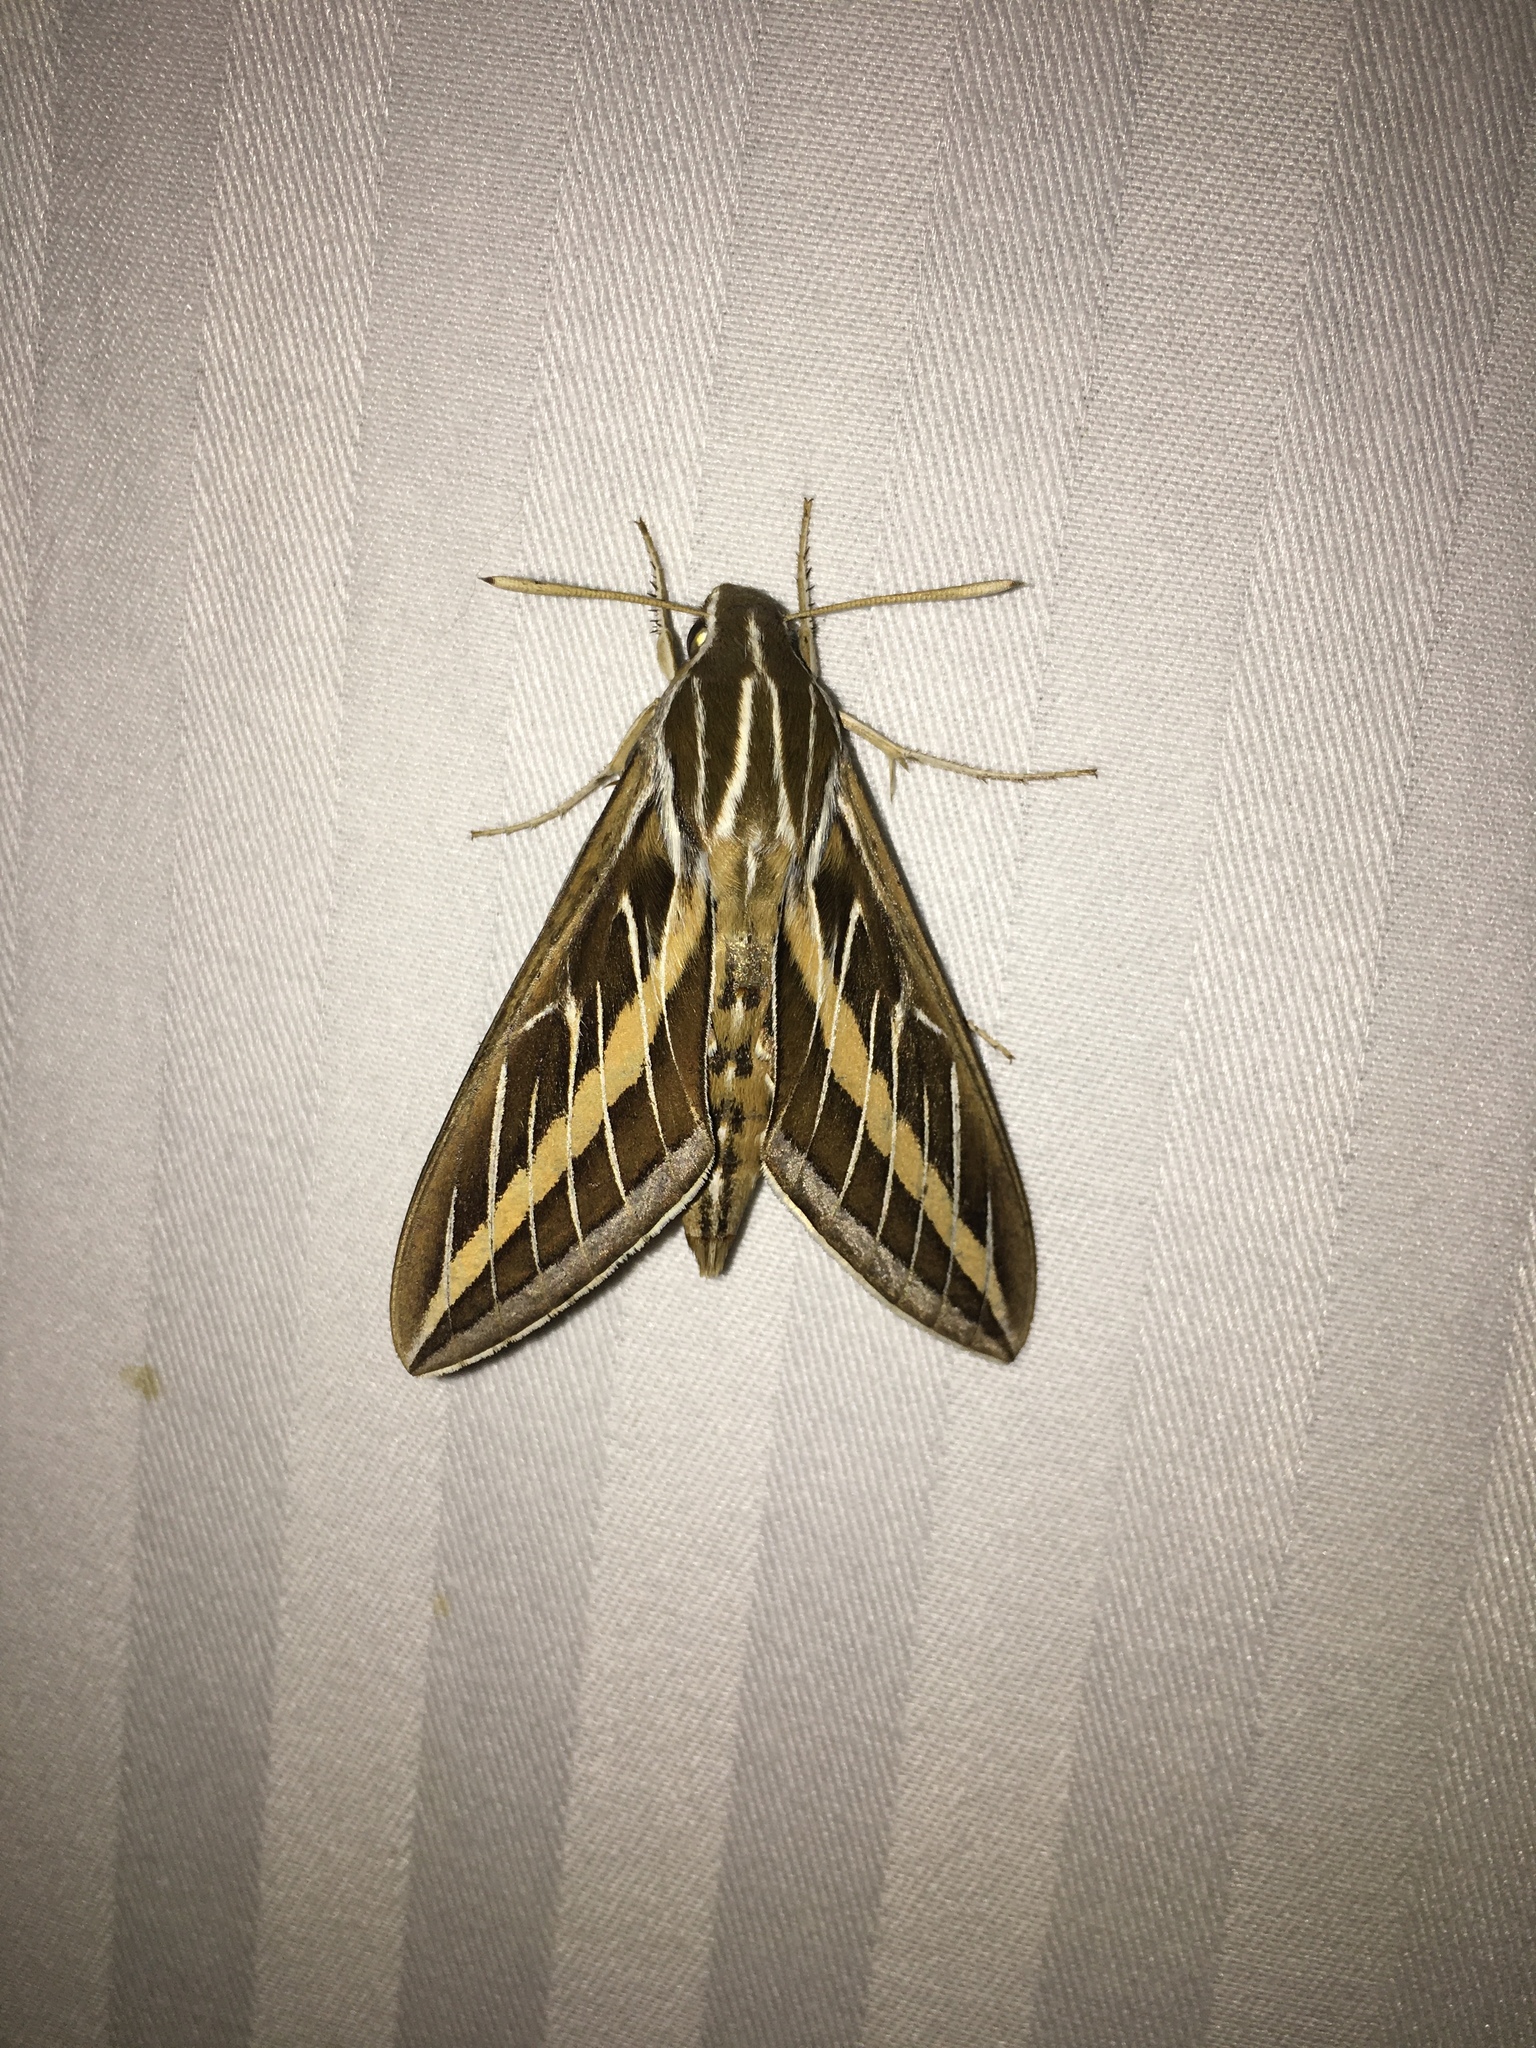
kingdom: Animalia
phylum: Arthropoda
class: Insecta
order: Lepidoptera
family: Sphingidae
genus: Hyles
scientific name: Hyles lineata
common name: White-lined sphinx
